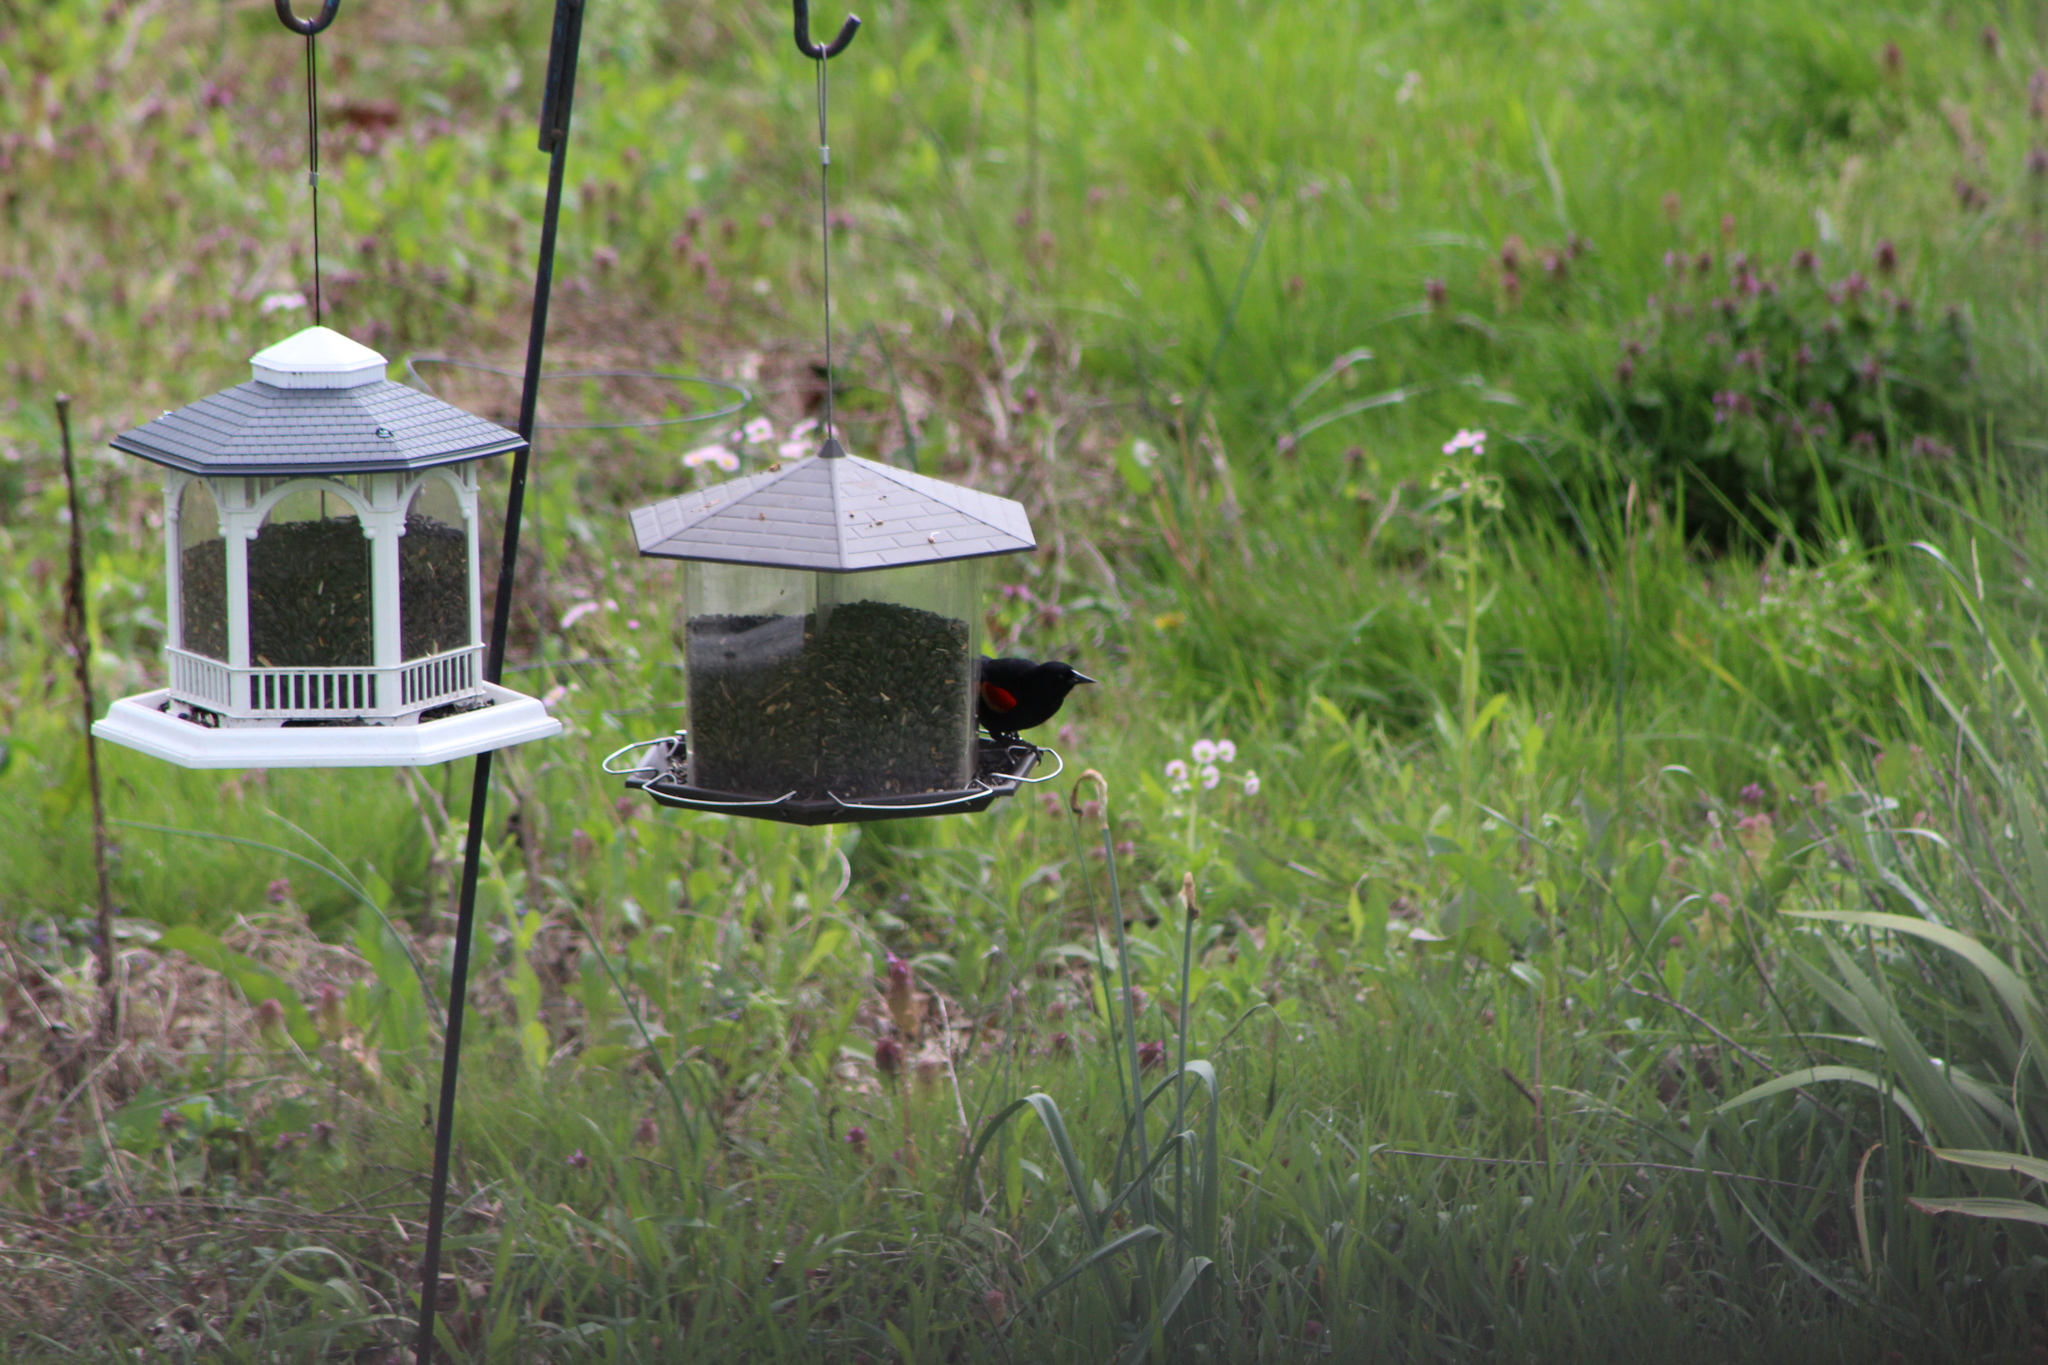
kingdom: Animalia
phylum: Chordata
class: Aves
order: Passeriformes
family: Icteridae
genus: Agelaius
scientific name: Agelaius phoeniceus
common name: Red-winged blackbird
